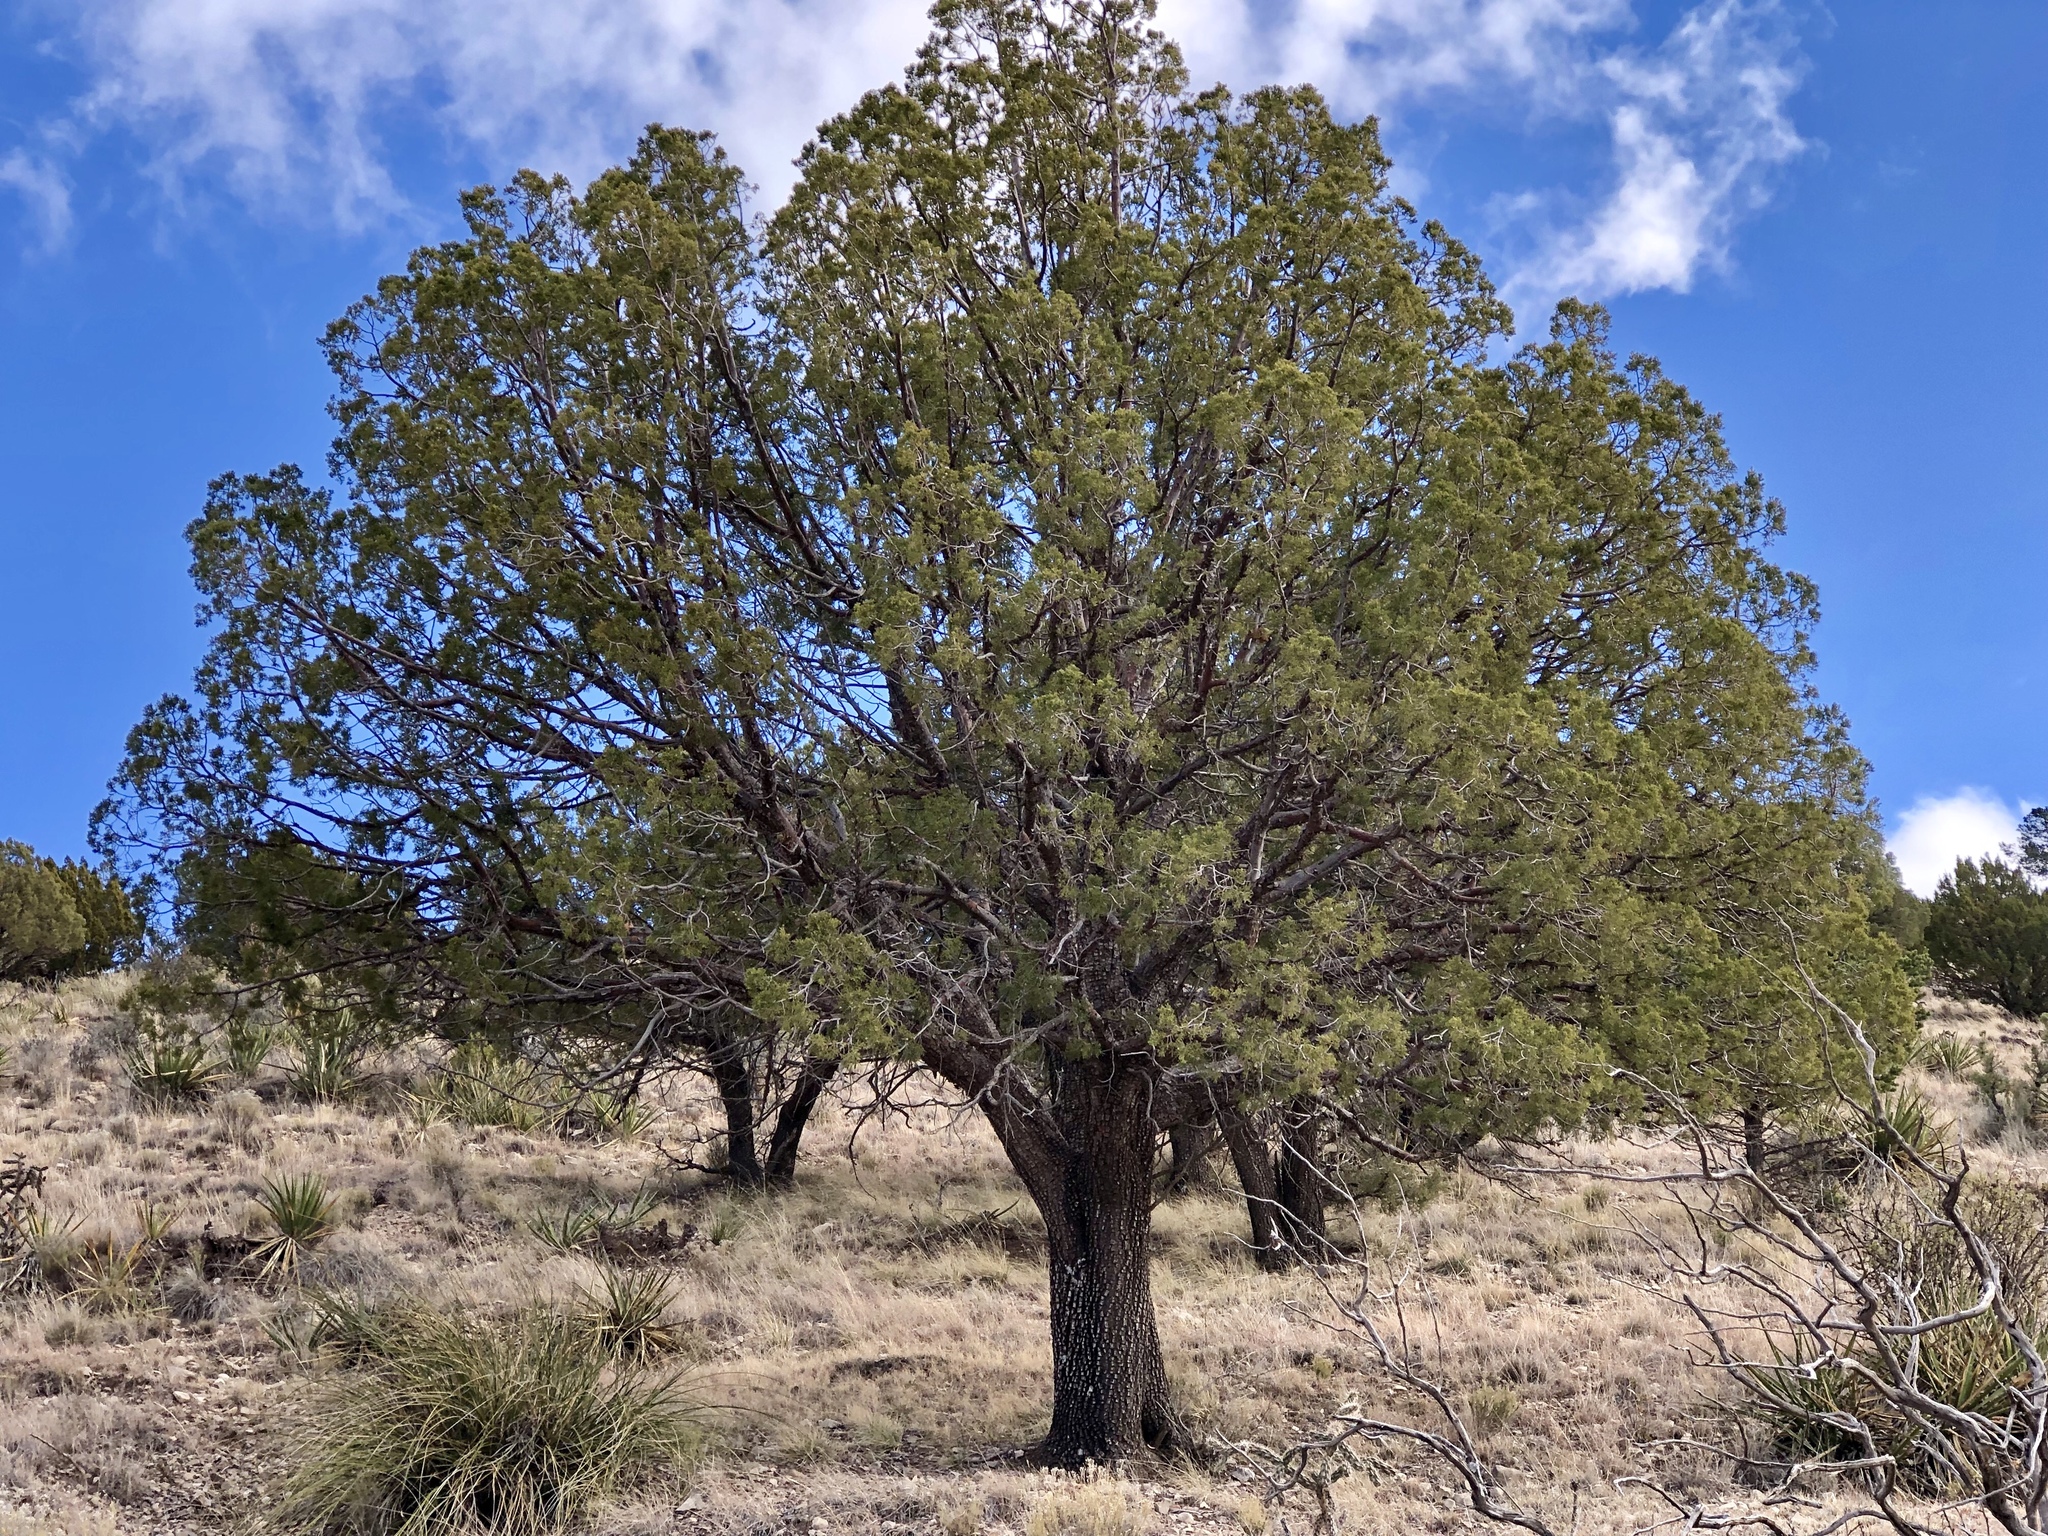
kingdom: Plantae
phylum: Tracheophyta
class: Pinopsida
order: Pinales
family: Cupressaceae
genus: Juniperus
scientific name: Juniperus deppeana
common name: Alligator juniper
